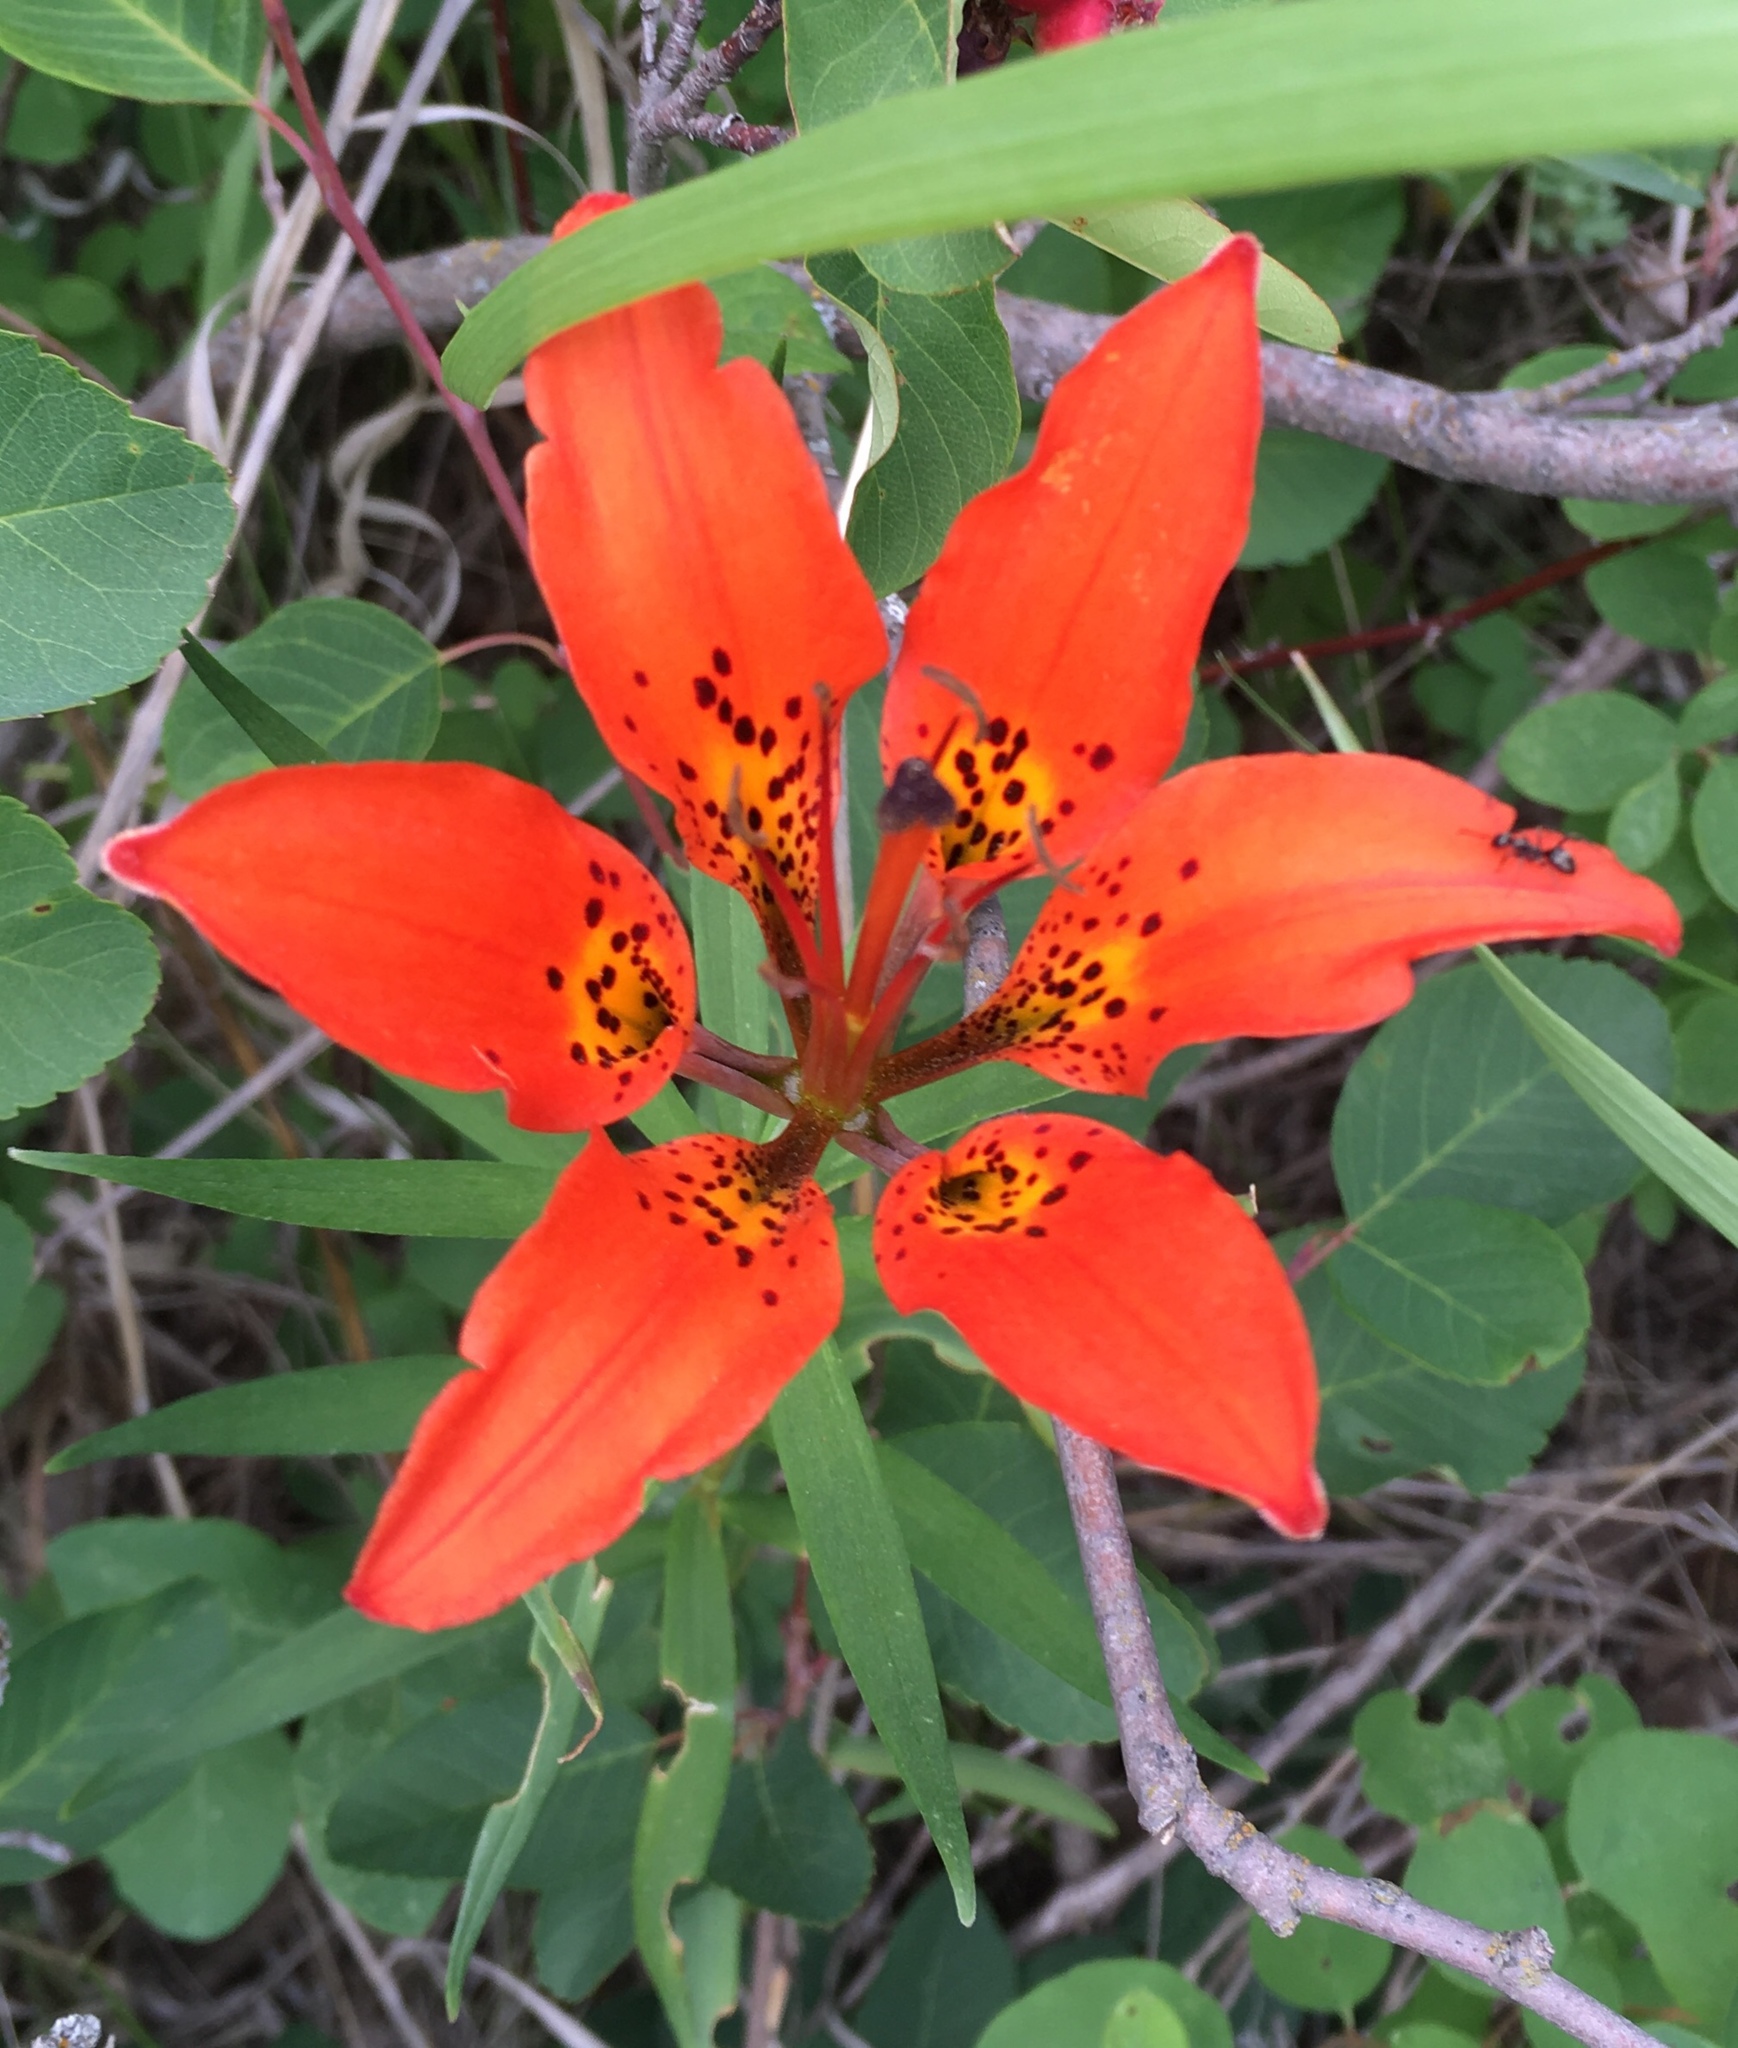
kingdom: Plantae
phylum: Tracheophyta
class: Liliopsida
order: Liliales
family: Liliaceae
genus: Lilium
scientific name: Lilium philadelphicum
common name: Red lily
